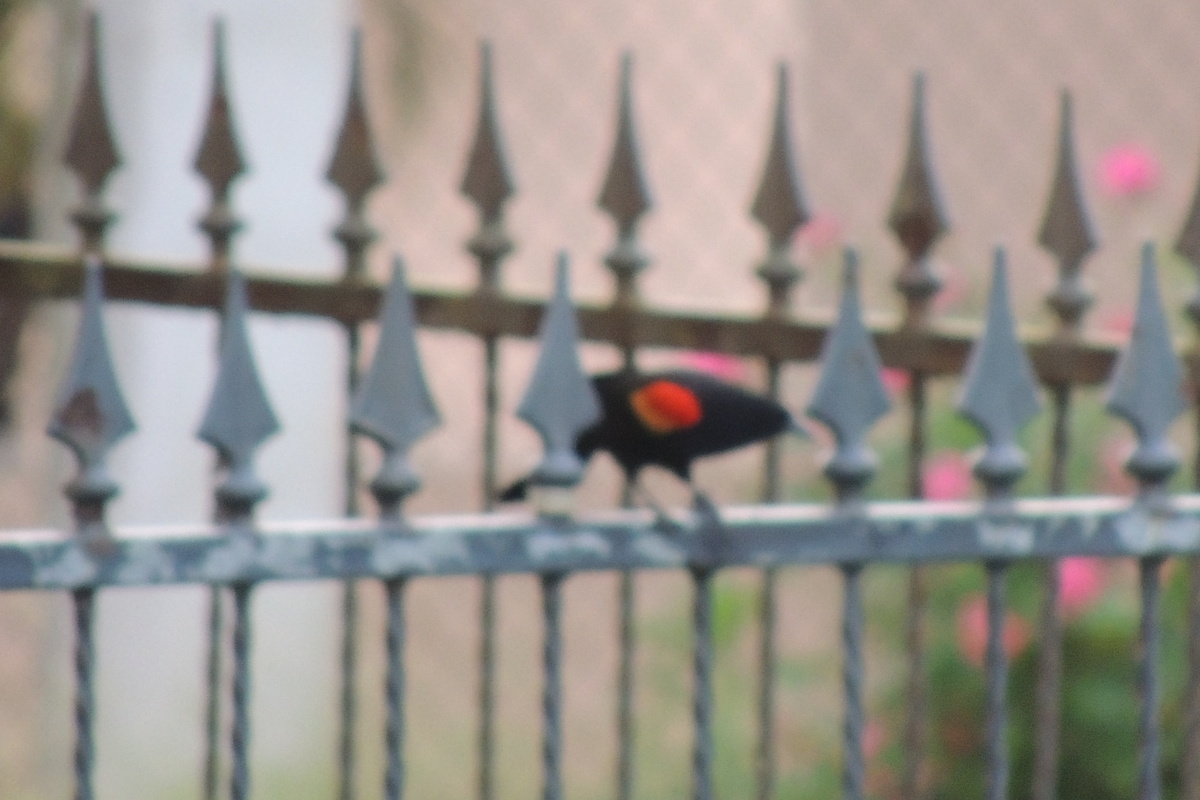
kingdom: Animalia
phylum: Chordata
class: Aves
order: Passeriformes
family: Icteridae
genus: Agelaius
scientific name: Agelaius phoeniceus
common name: Red-winged blackbird
